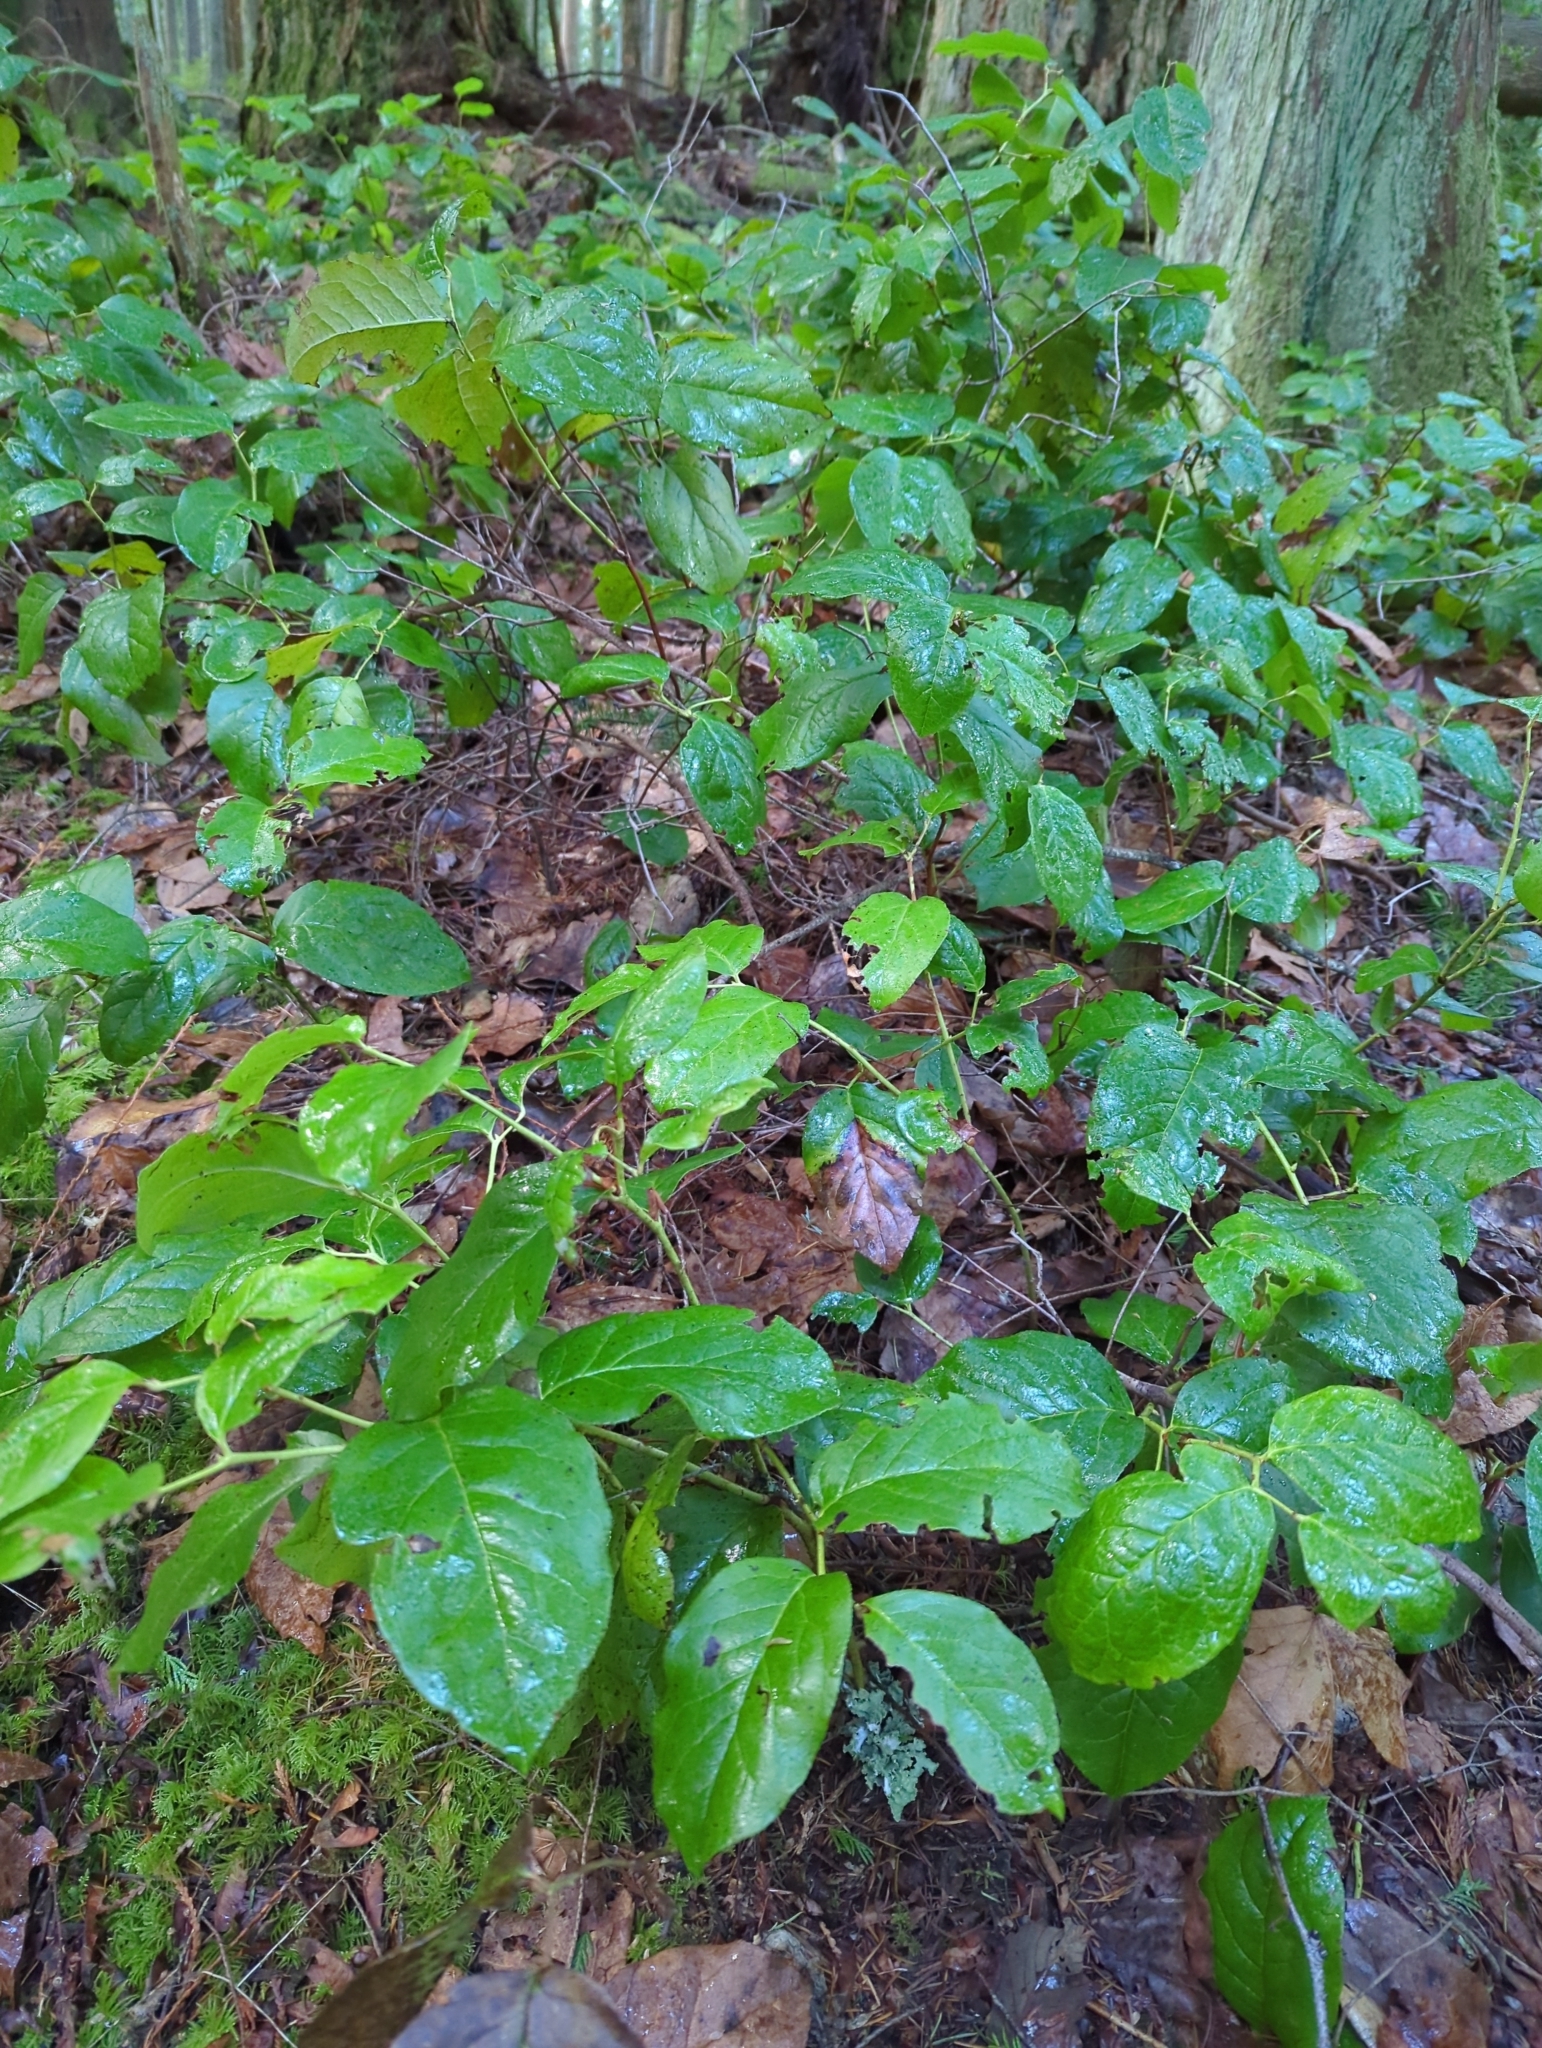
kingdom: Plantae
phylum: Tracheophyta
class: Magnoliopsida
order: Ericales
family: Ericaceae
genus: Gaultheria
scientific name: Gaultheria shallon
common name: Shallon
